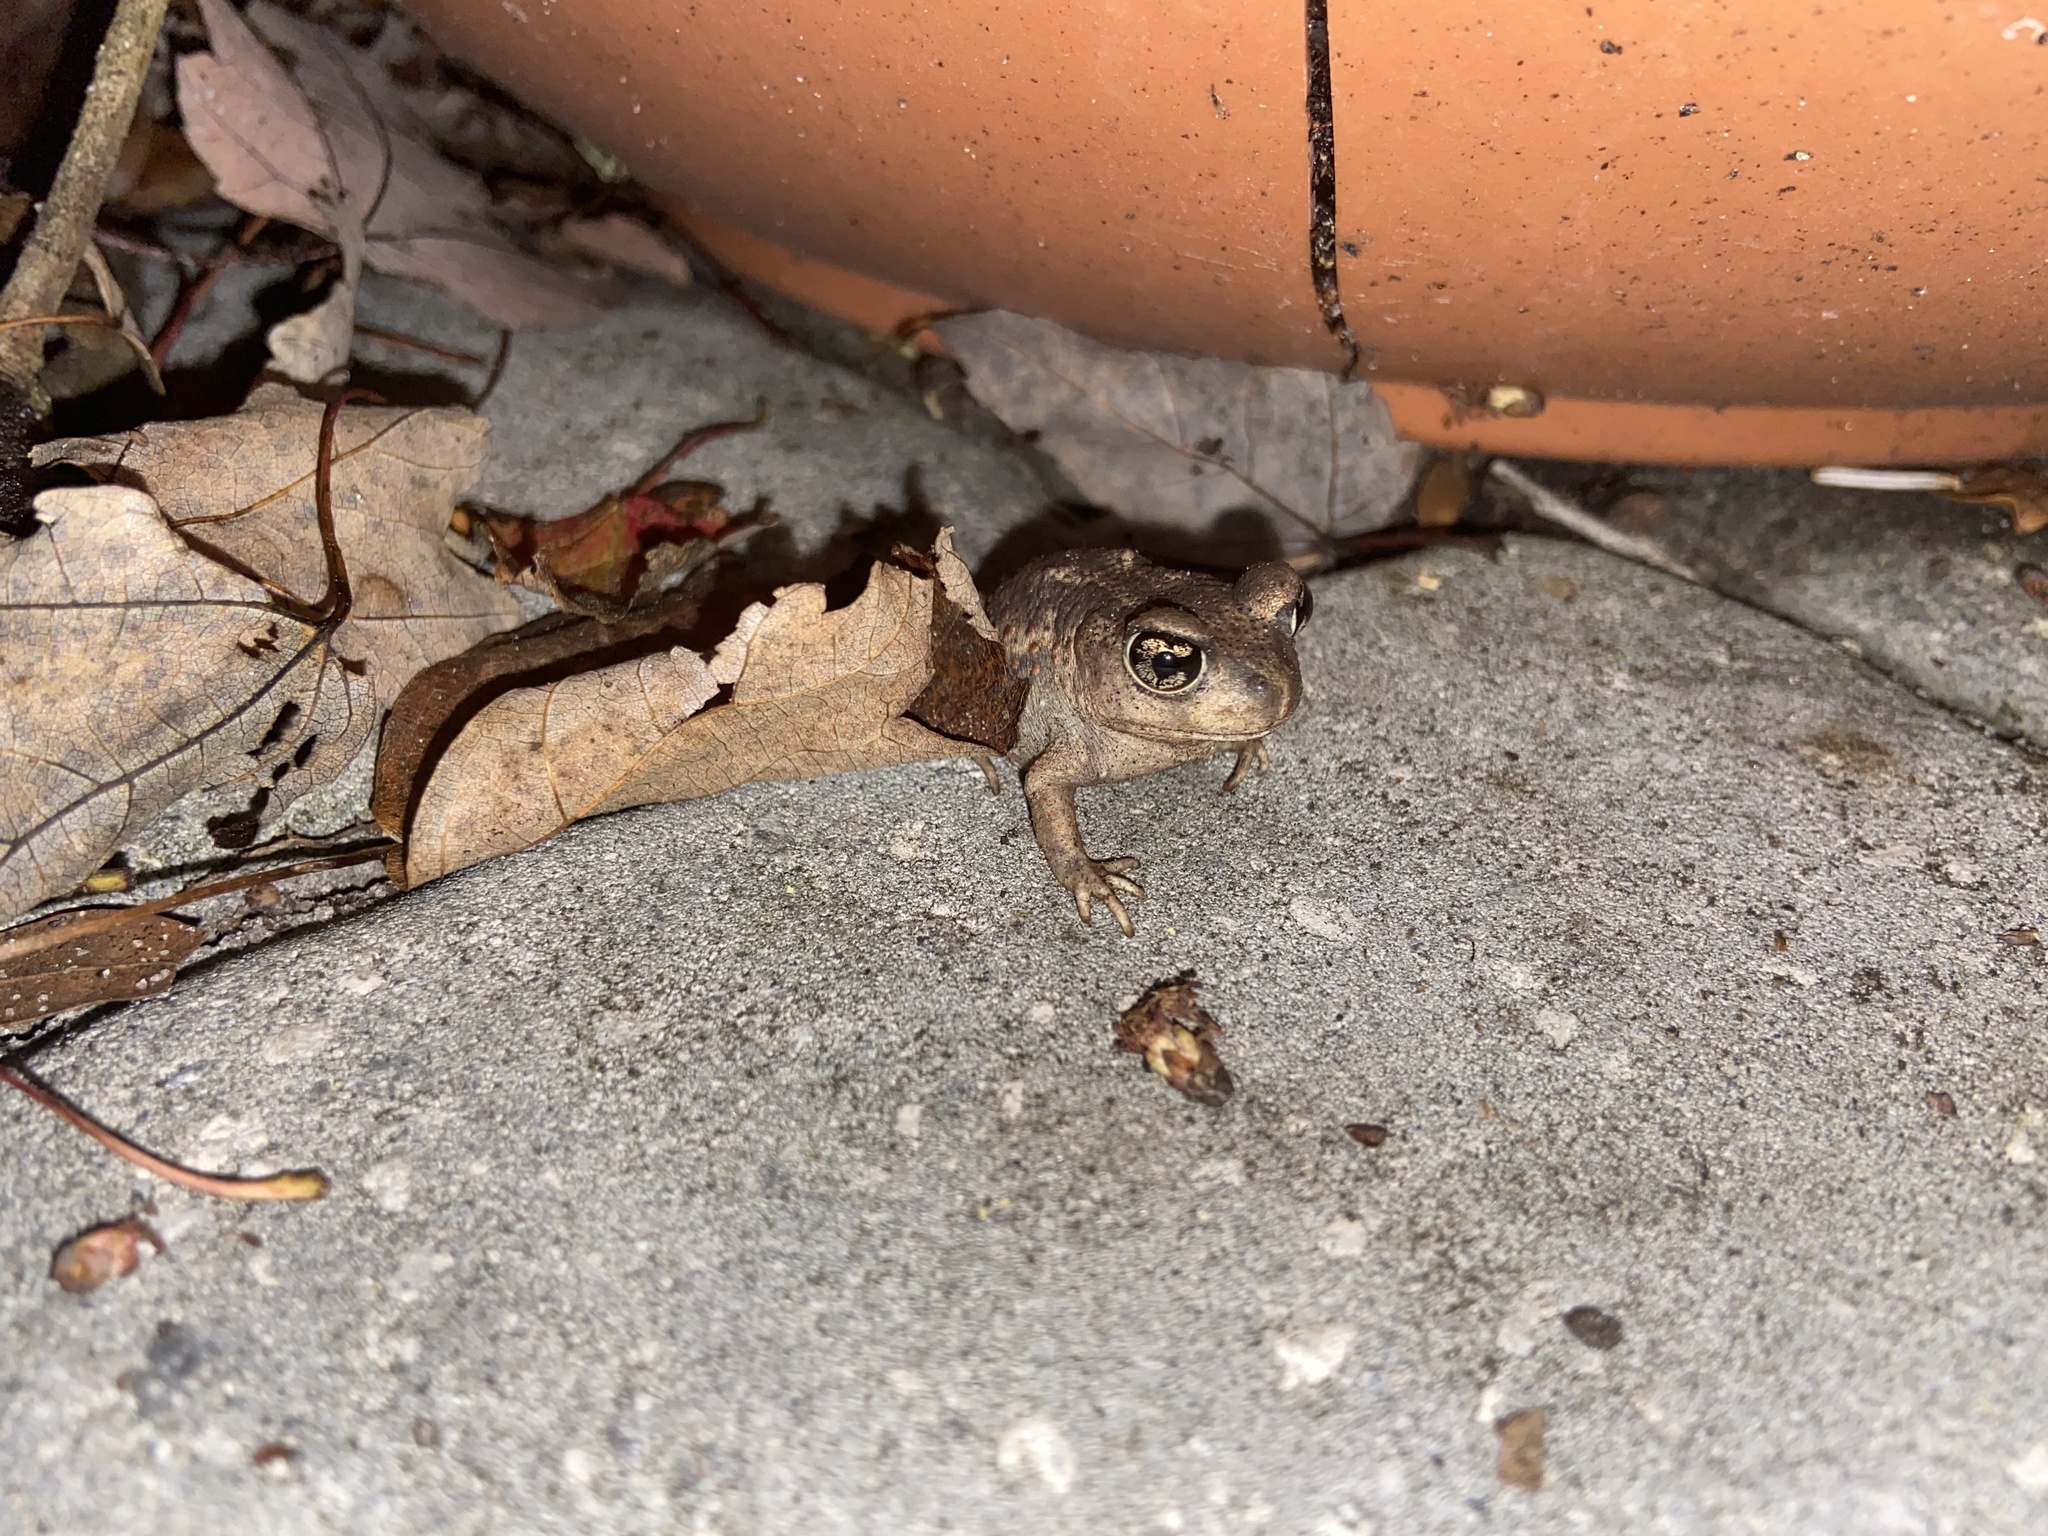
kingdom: Animalia
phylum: Chordata
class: Amphibia
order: Anura
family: Scaphiopodidae
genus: Scaphiopus
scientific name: Scaphiopus holbrookii
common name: Eastern spadefoot toad
